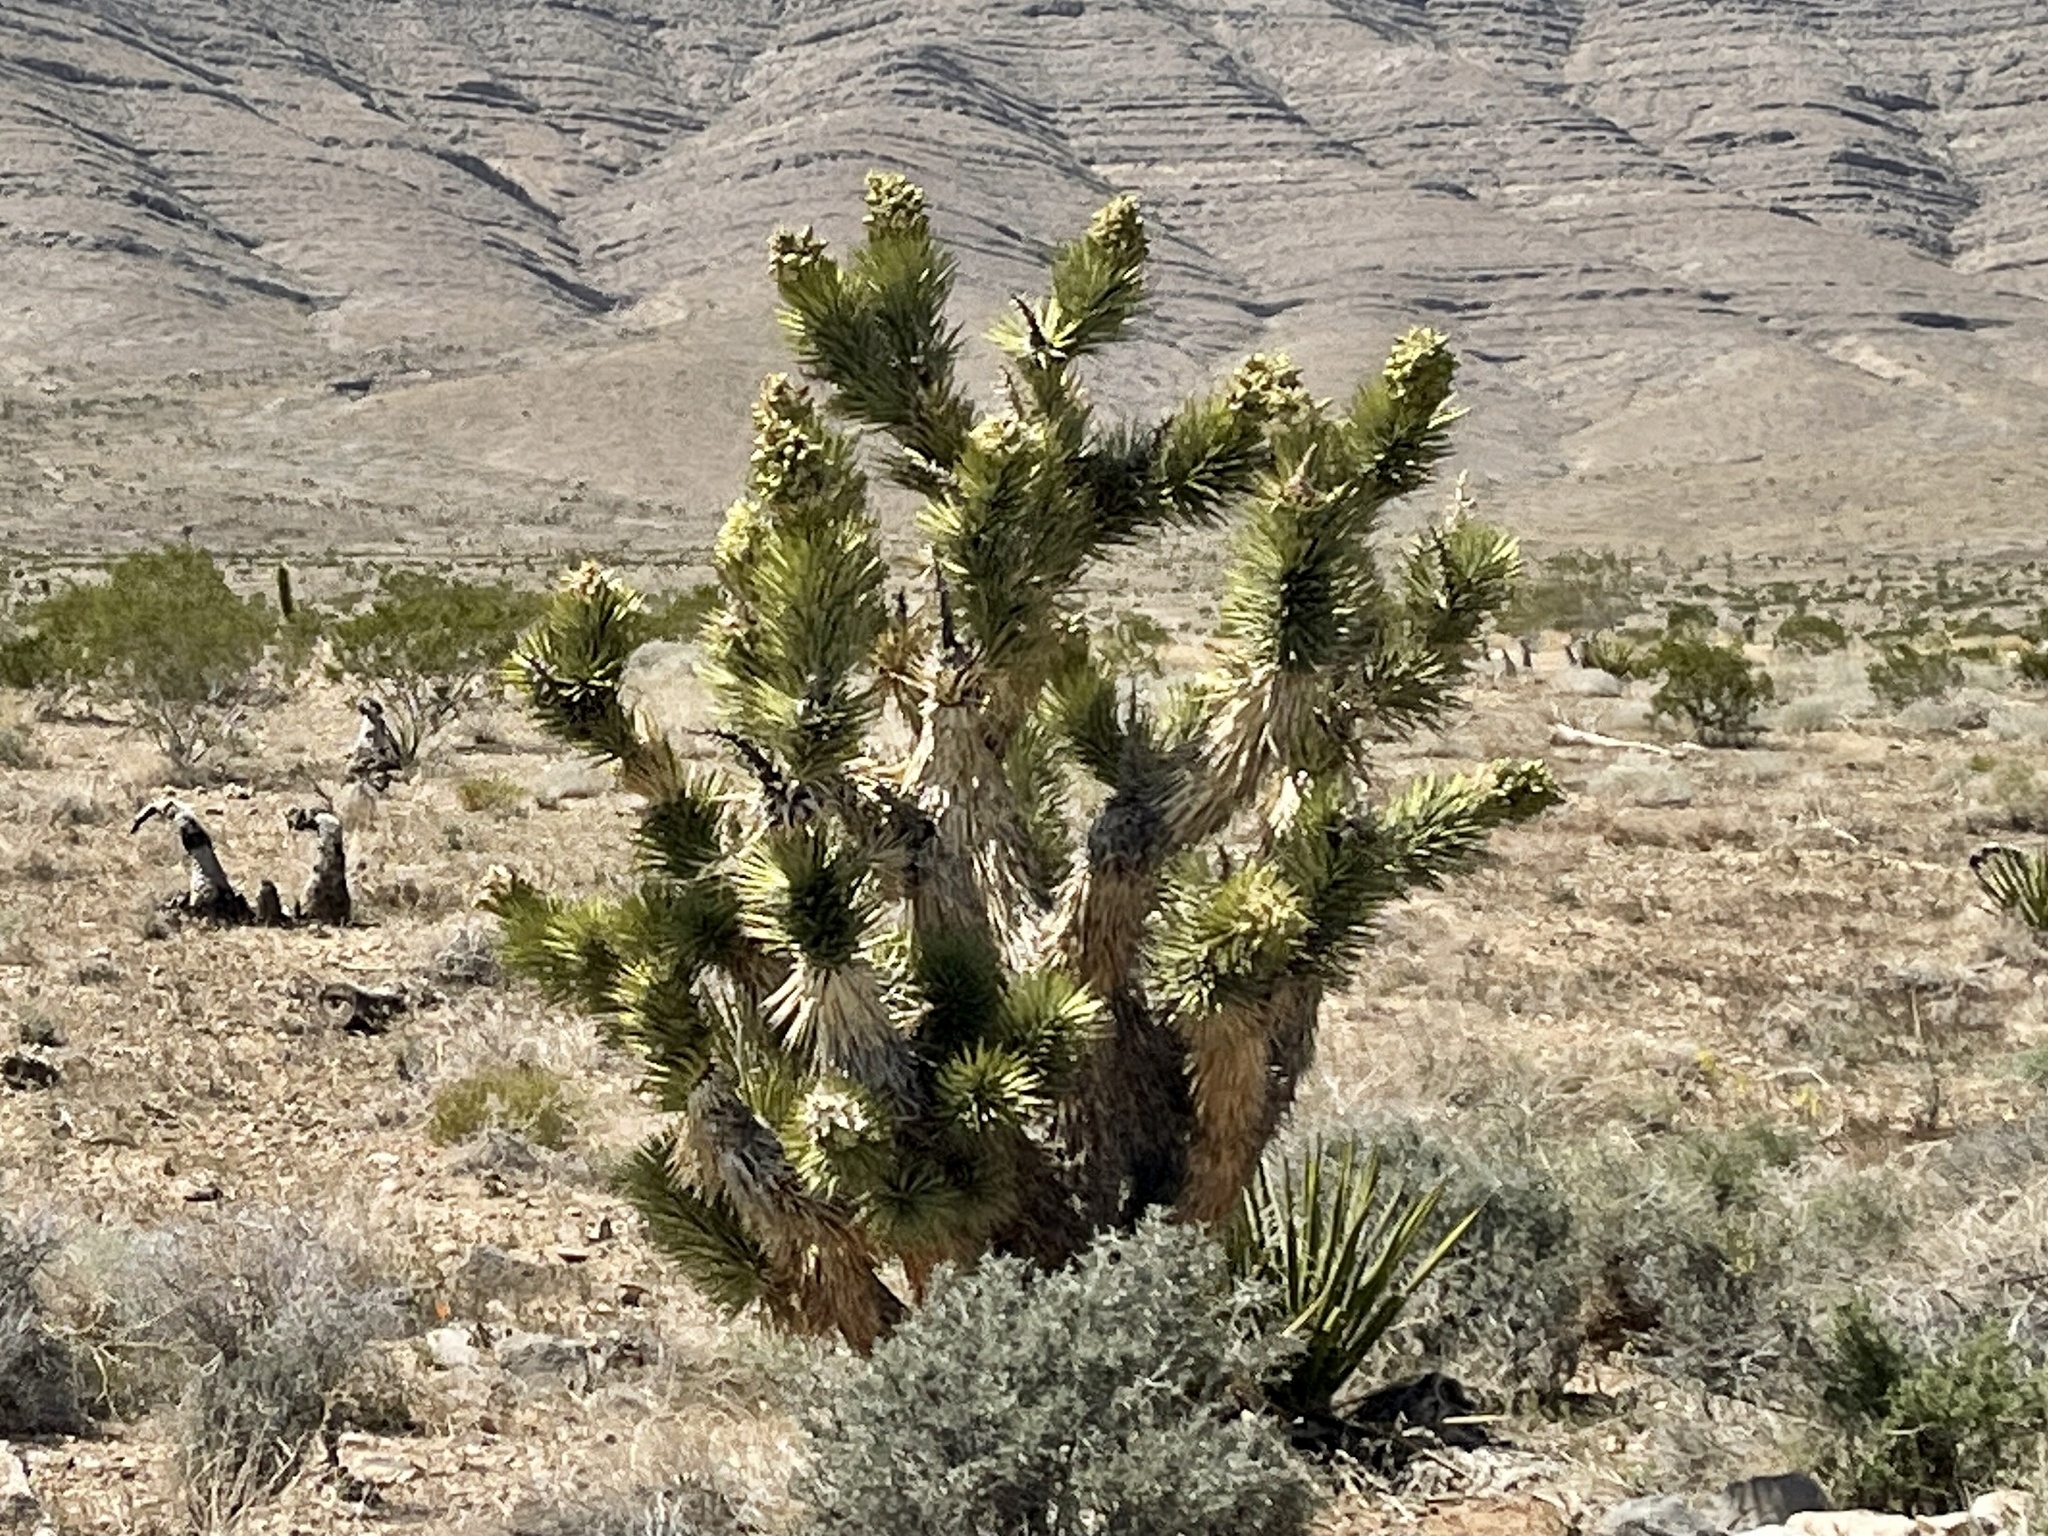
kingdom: Plantae
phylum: Tracheophyta
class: Liliopsida
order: Asparagales
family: Asparagaceae
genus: Yucca
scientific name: Yucca brevifolia
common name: Joshua tree
